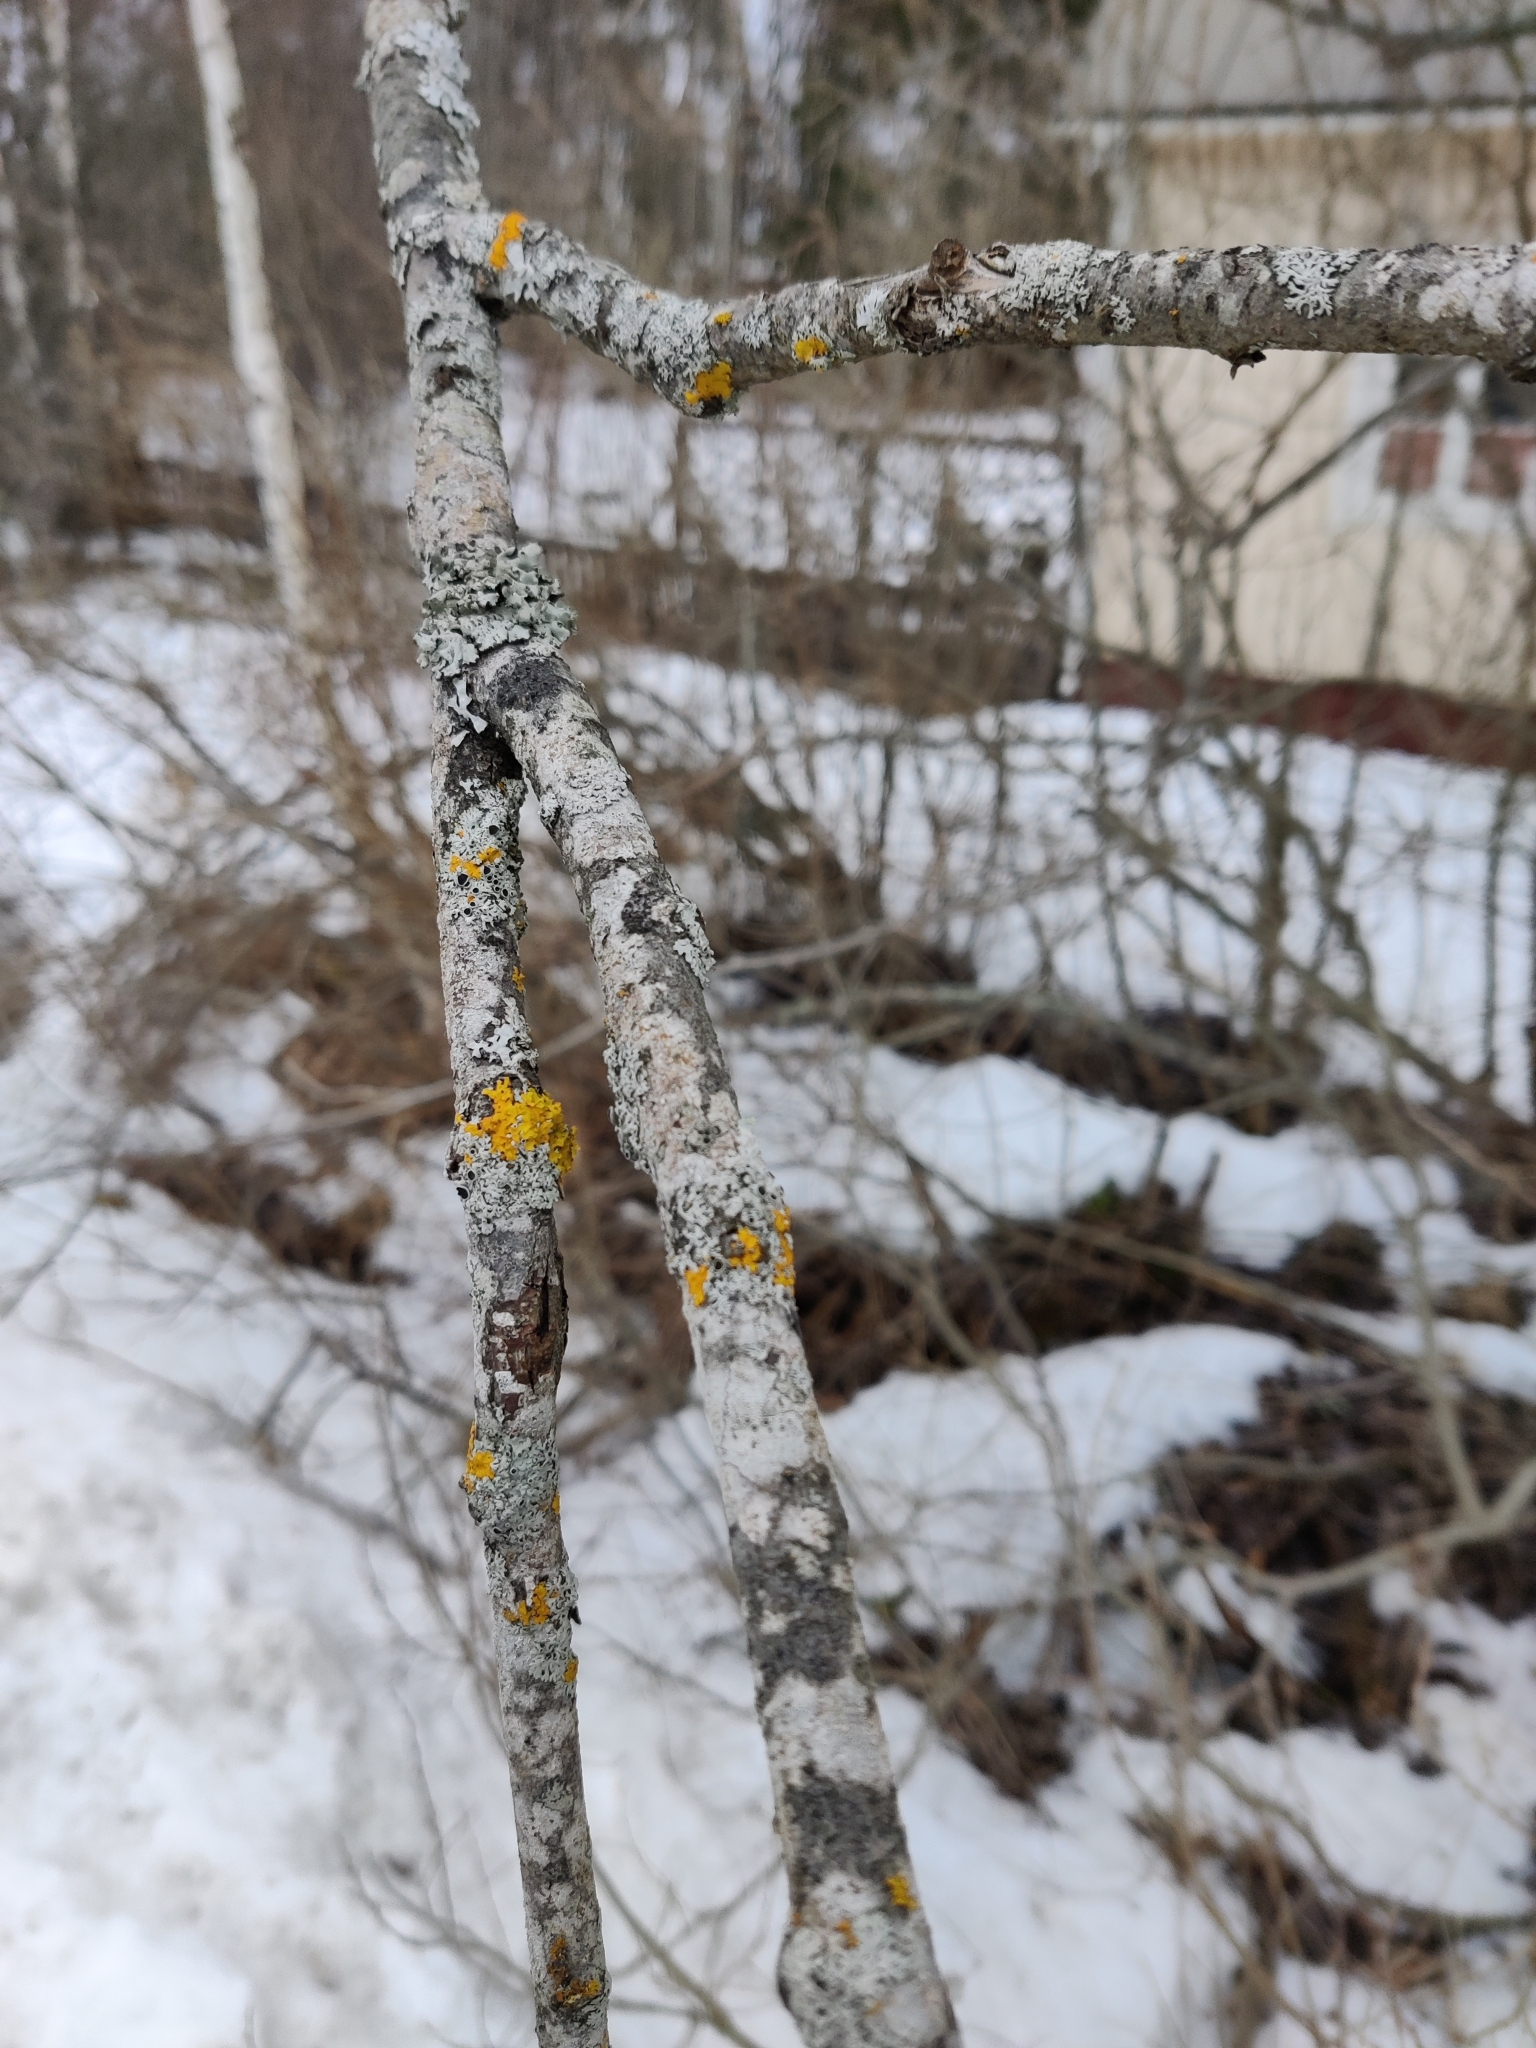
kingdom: Fungi
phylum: Ascomycota
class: Lecanoromycetes
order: Teloschistales
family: Teloschistaceae
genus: Xanthoria
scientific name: Xanthoria parietina
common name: Common orange lichen
